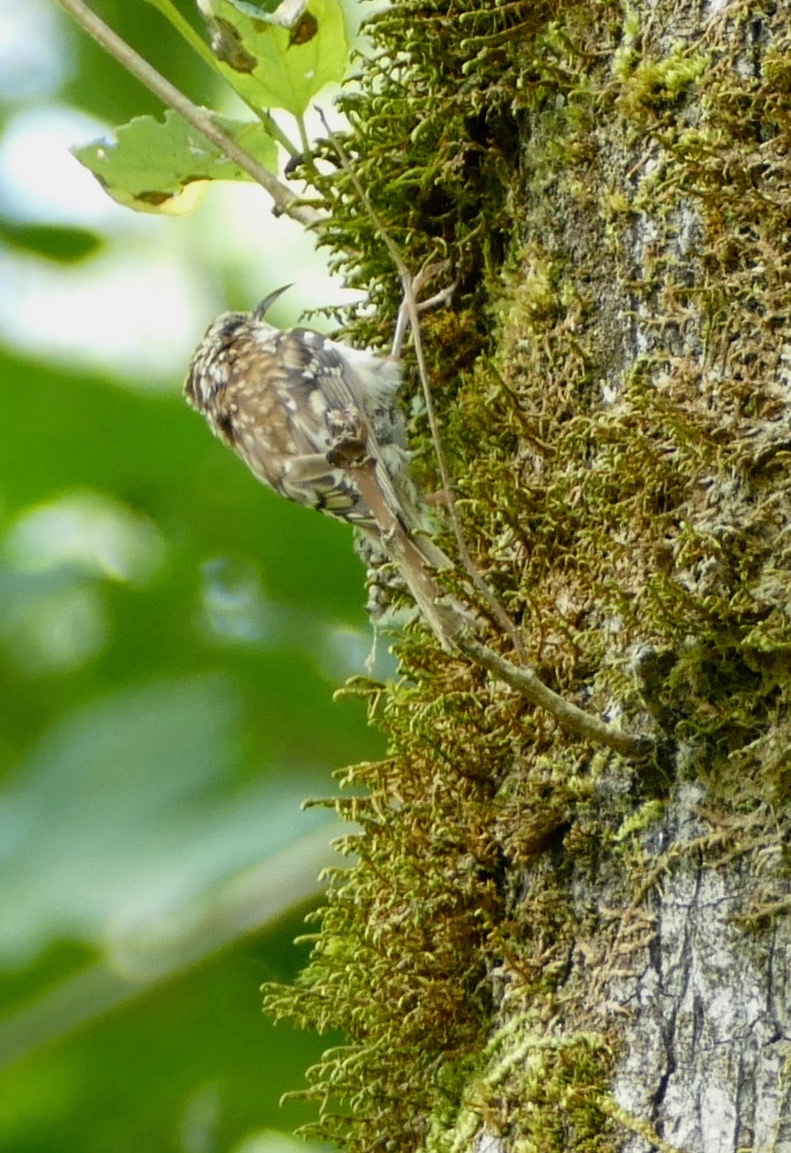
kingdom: Animalia
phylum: Chordata
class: Aves
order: Passeriformes
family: Certhiidae
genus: Certhia
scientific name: Certhia americana
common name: Brown creeper
